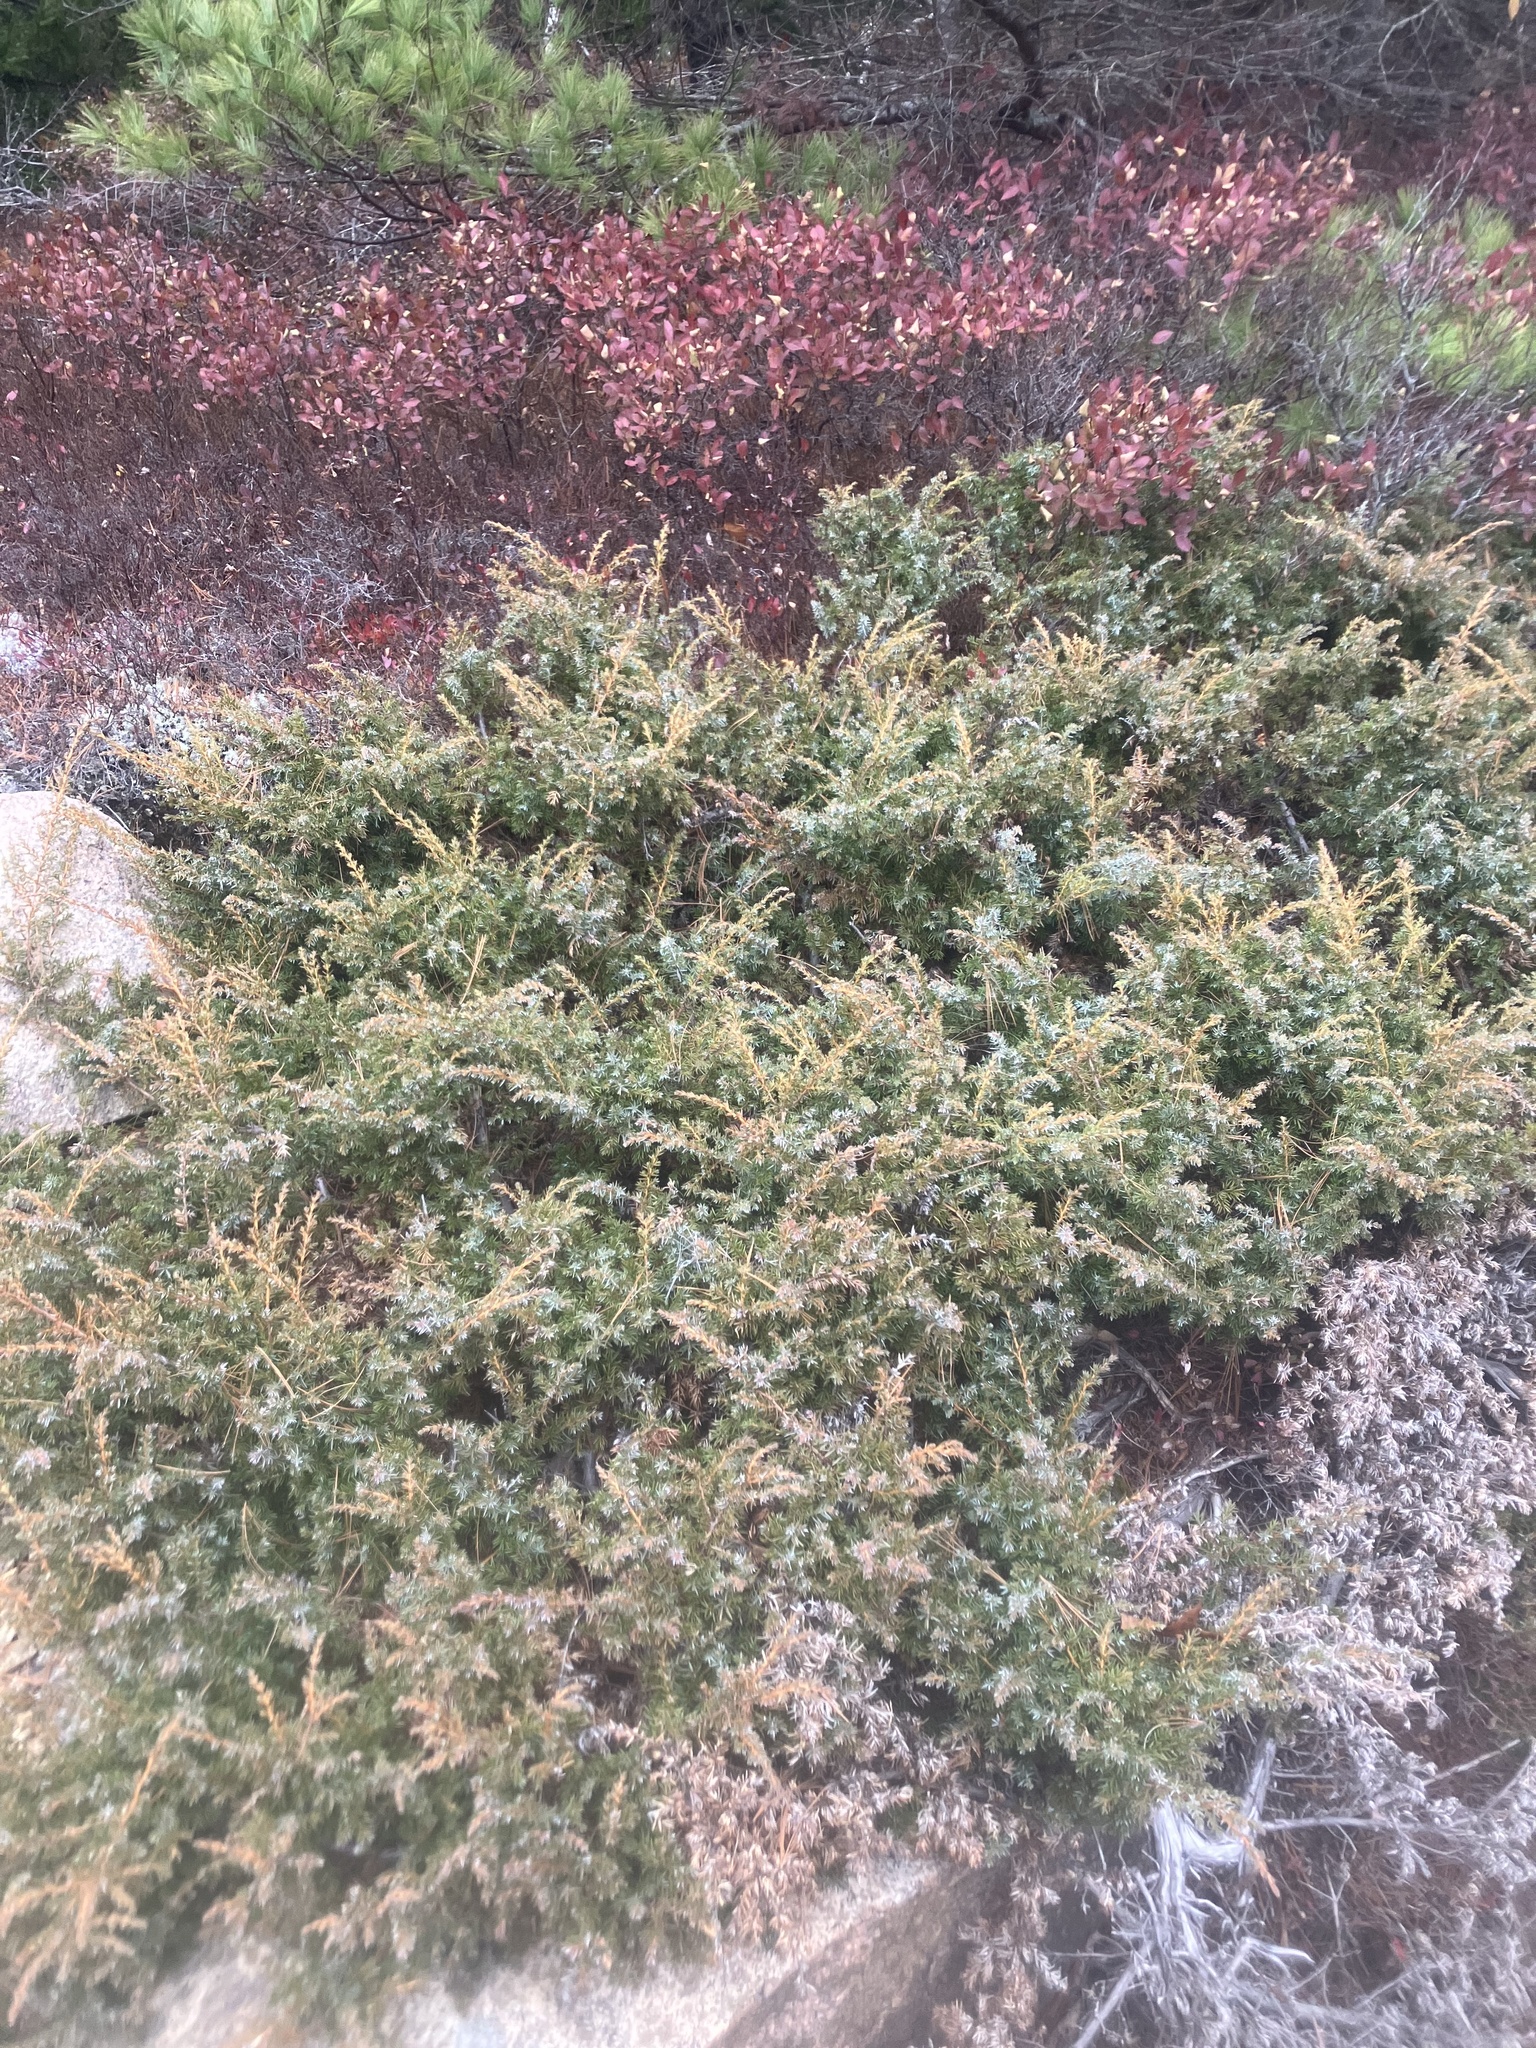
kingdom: Plantae
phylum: Tracheophyta
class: Pinopsida
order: Pinales
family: Cupressaceae
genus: Juniperus
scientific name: Juniperus communis
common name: Common juniper
